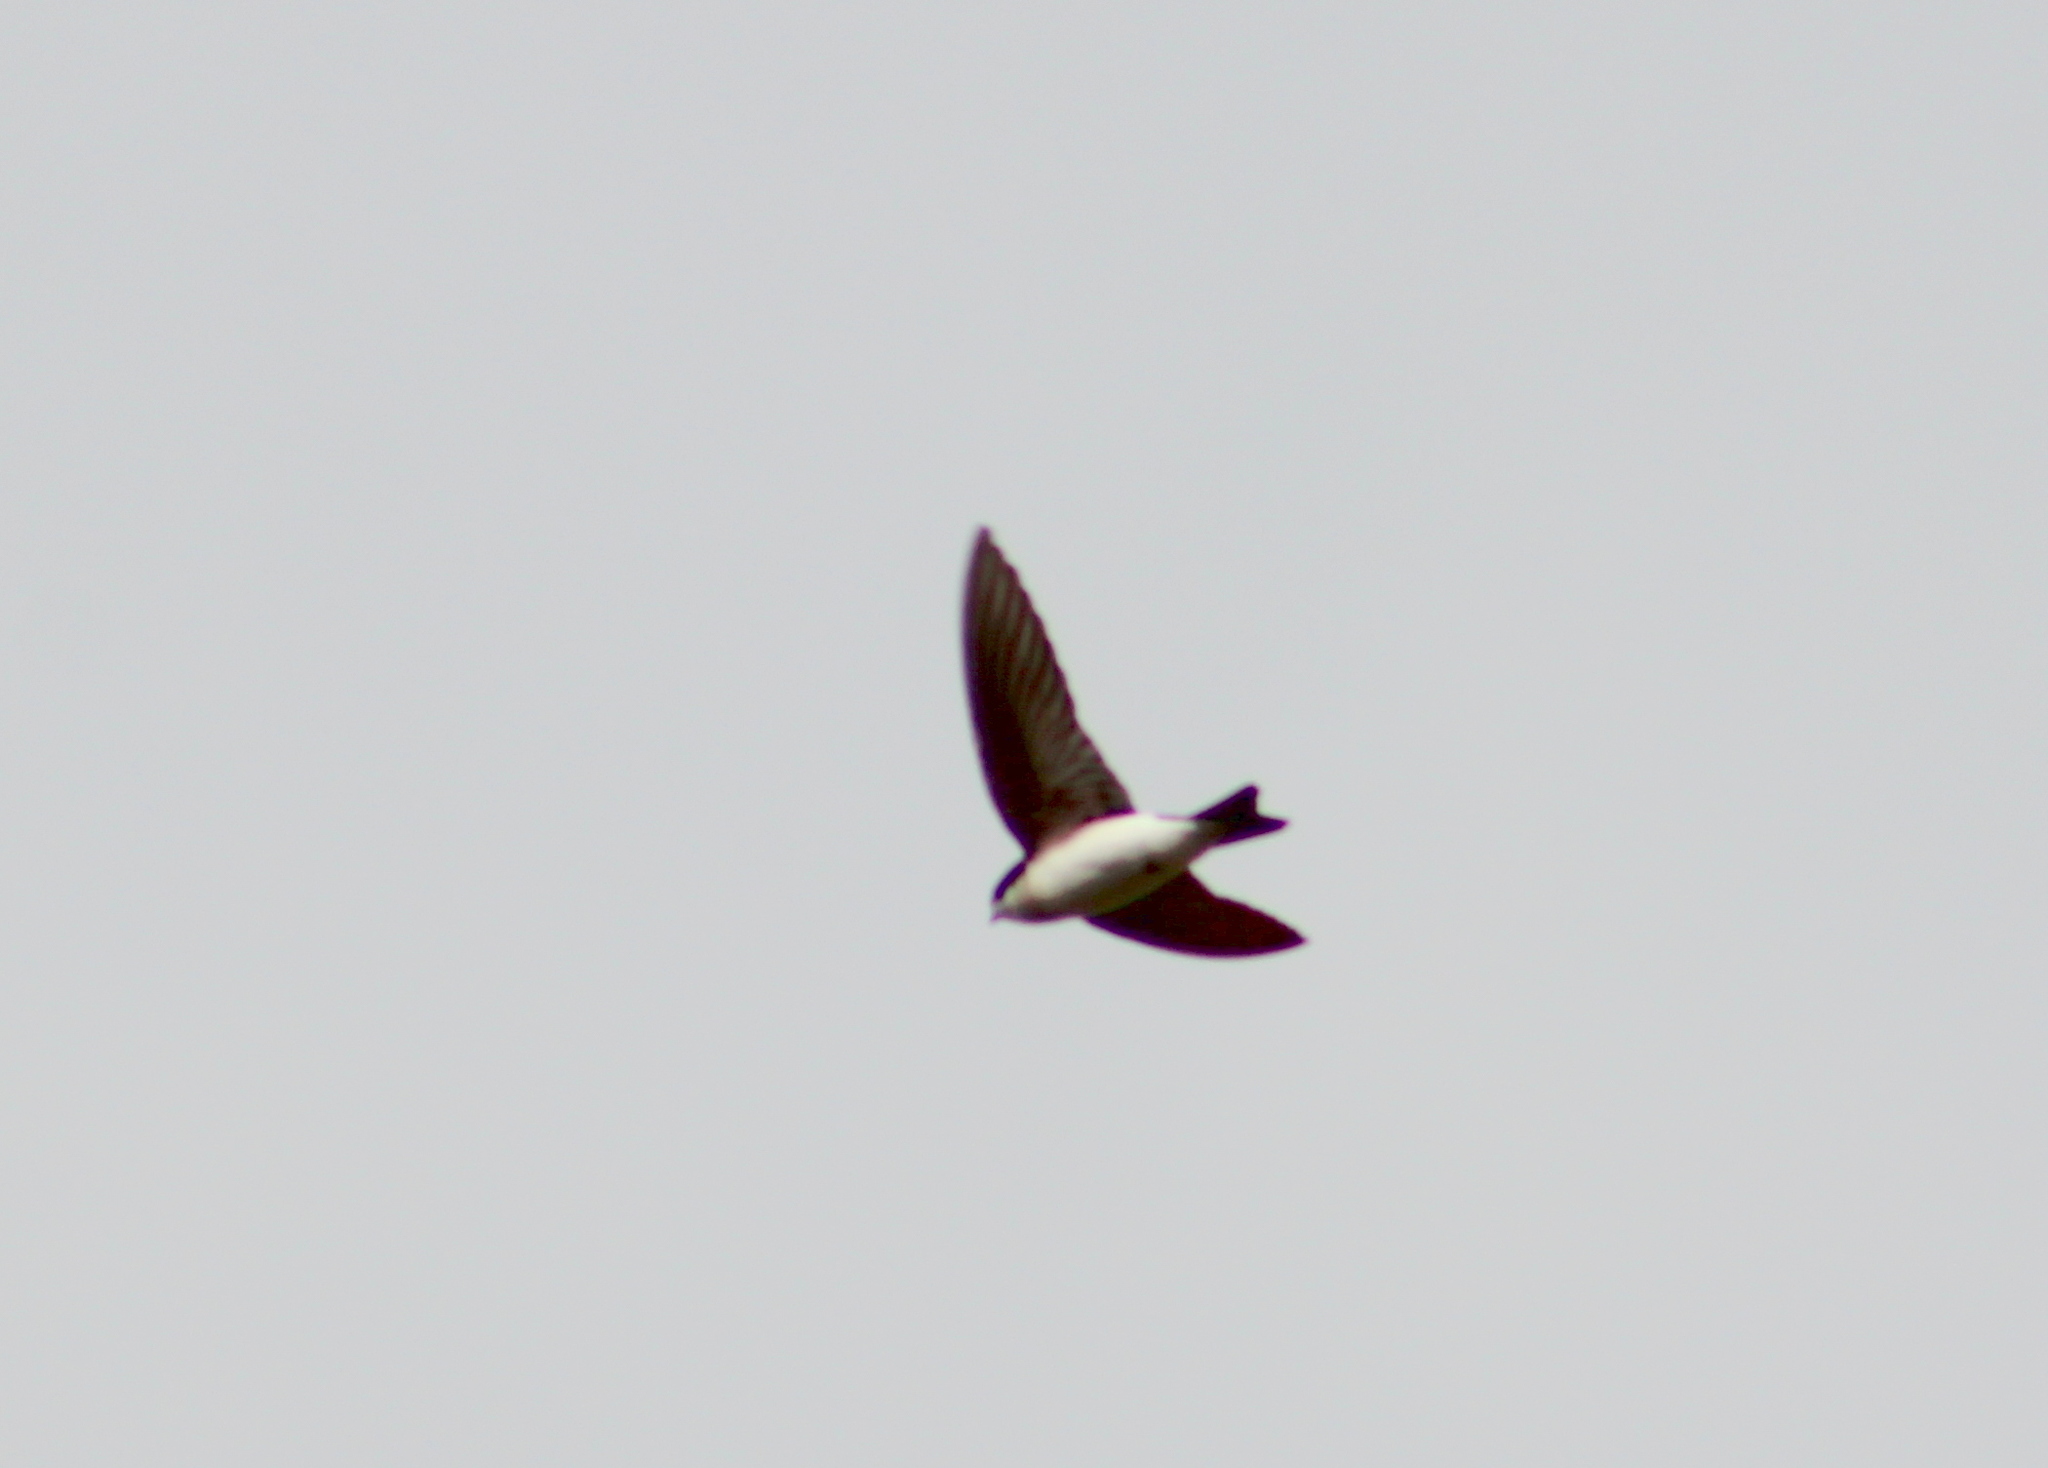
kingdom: Animalia
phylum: Chordata
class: Aves
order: Passeriformes
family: Hirundinidae
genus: Tachycineta
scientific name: Tachycineta bicolor
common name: Tree swallow
